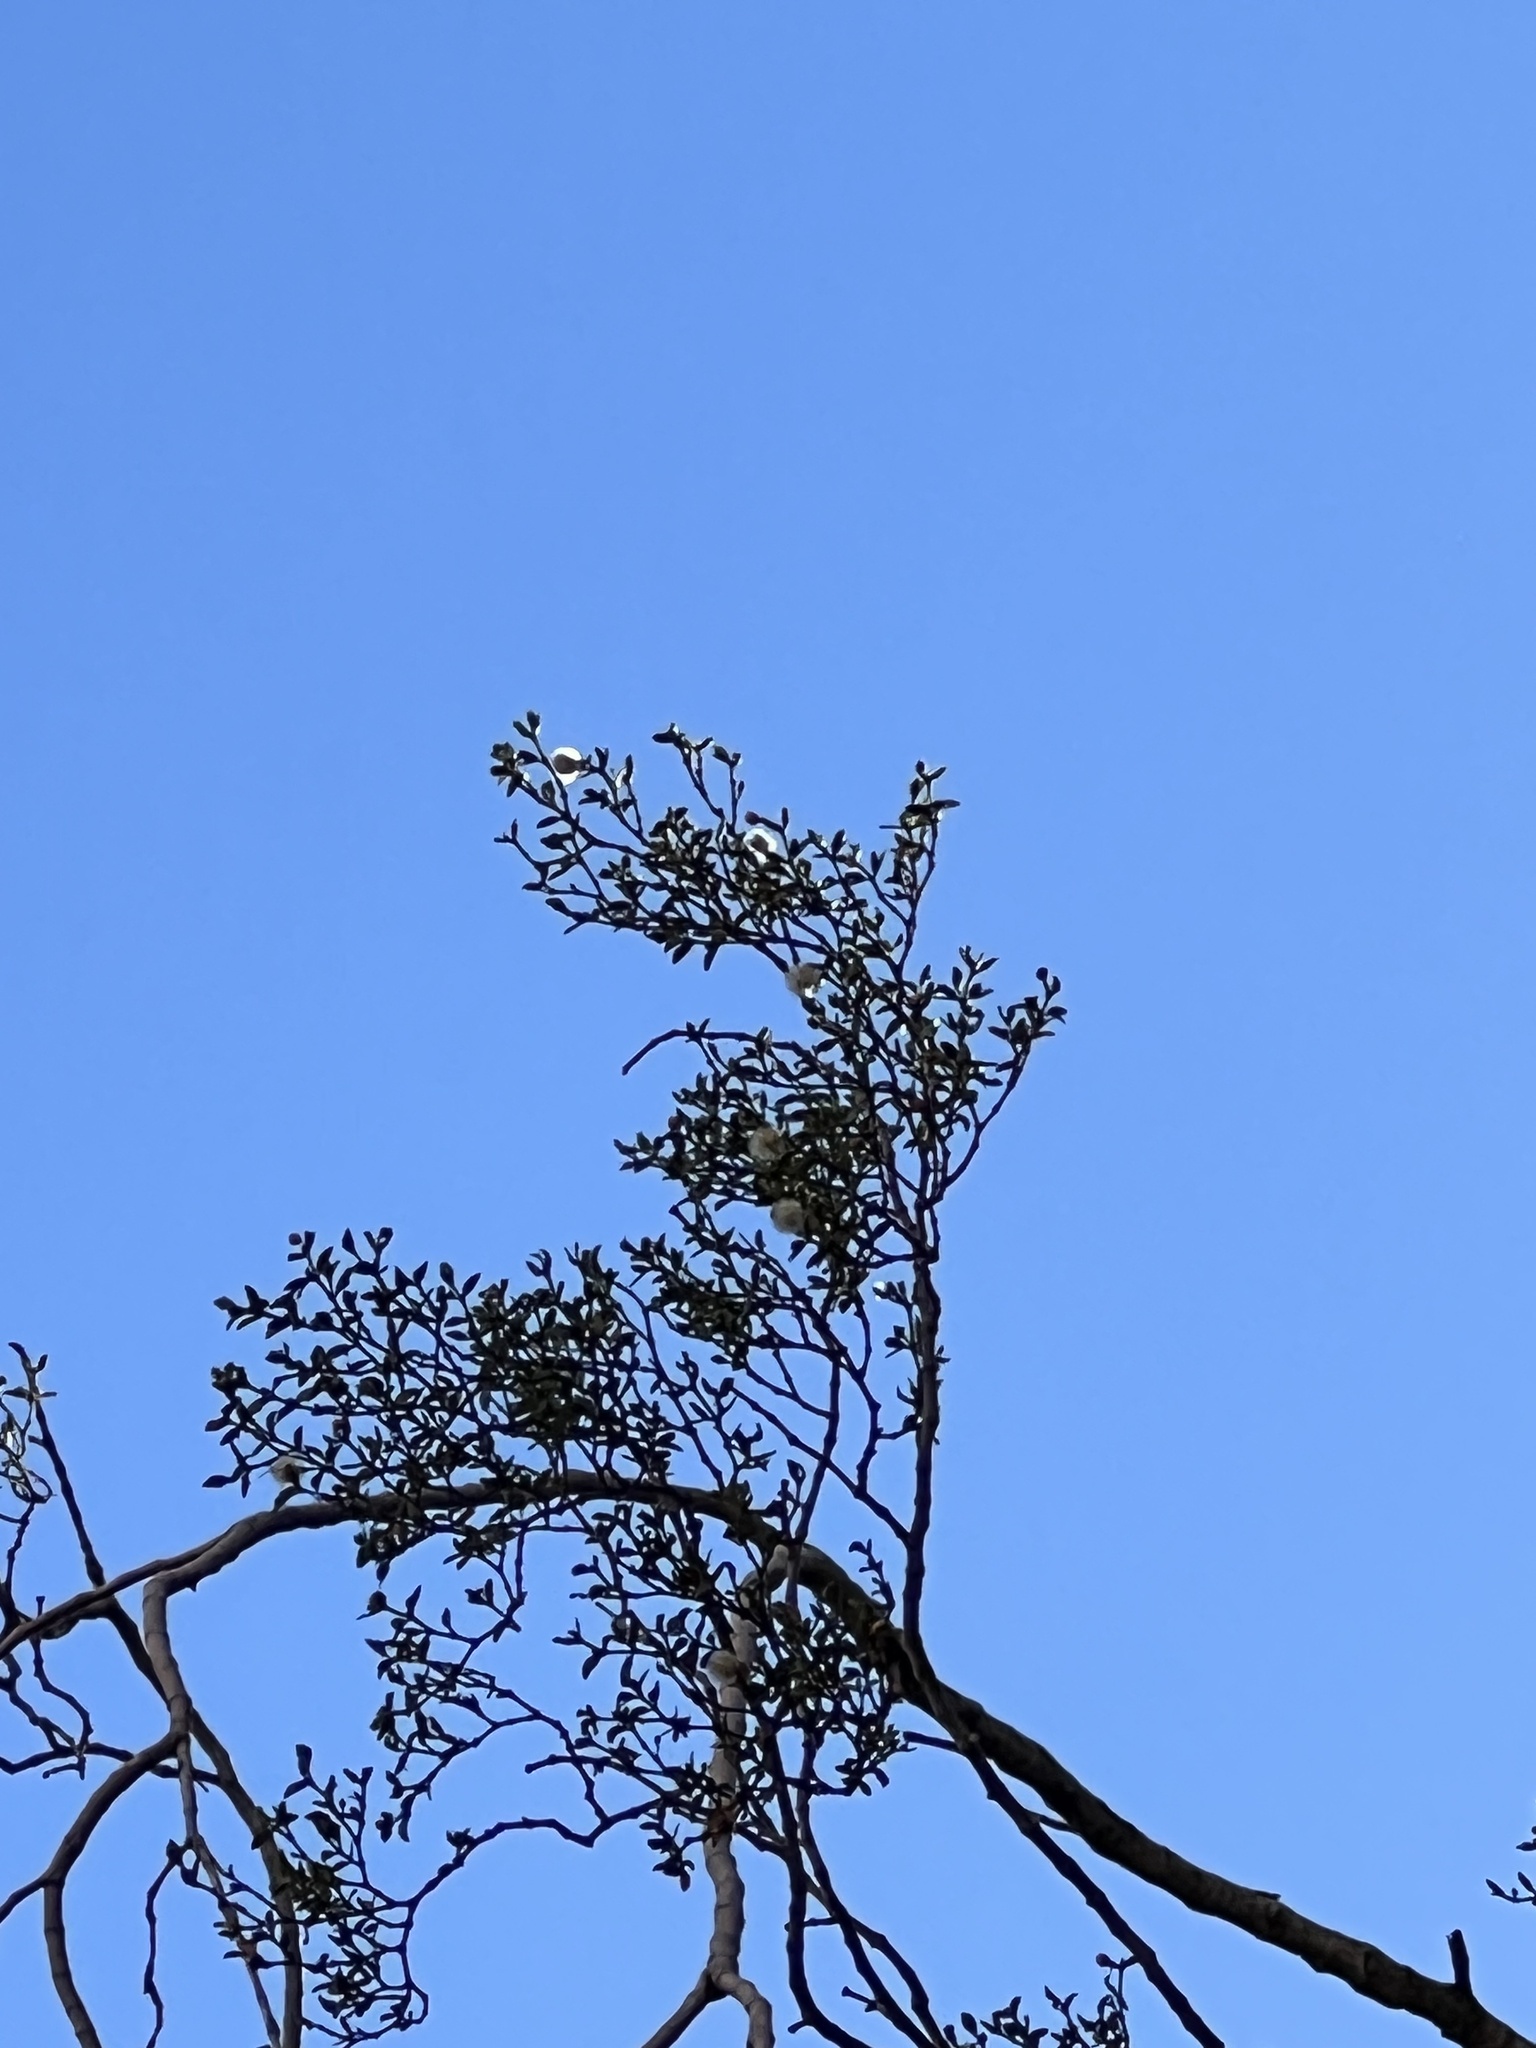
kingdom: Plantae
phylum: Tracheophyta
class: Magnoliopsida
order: Zygophyllales
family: Zygophyllaceae
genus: Larrea
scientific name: Larrea tridentata
